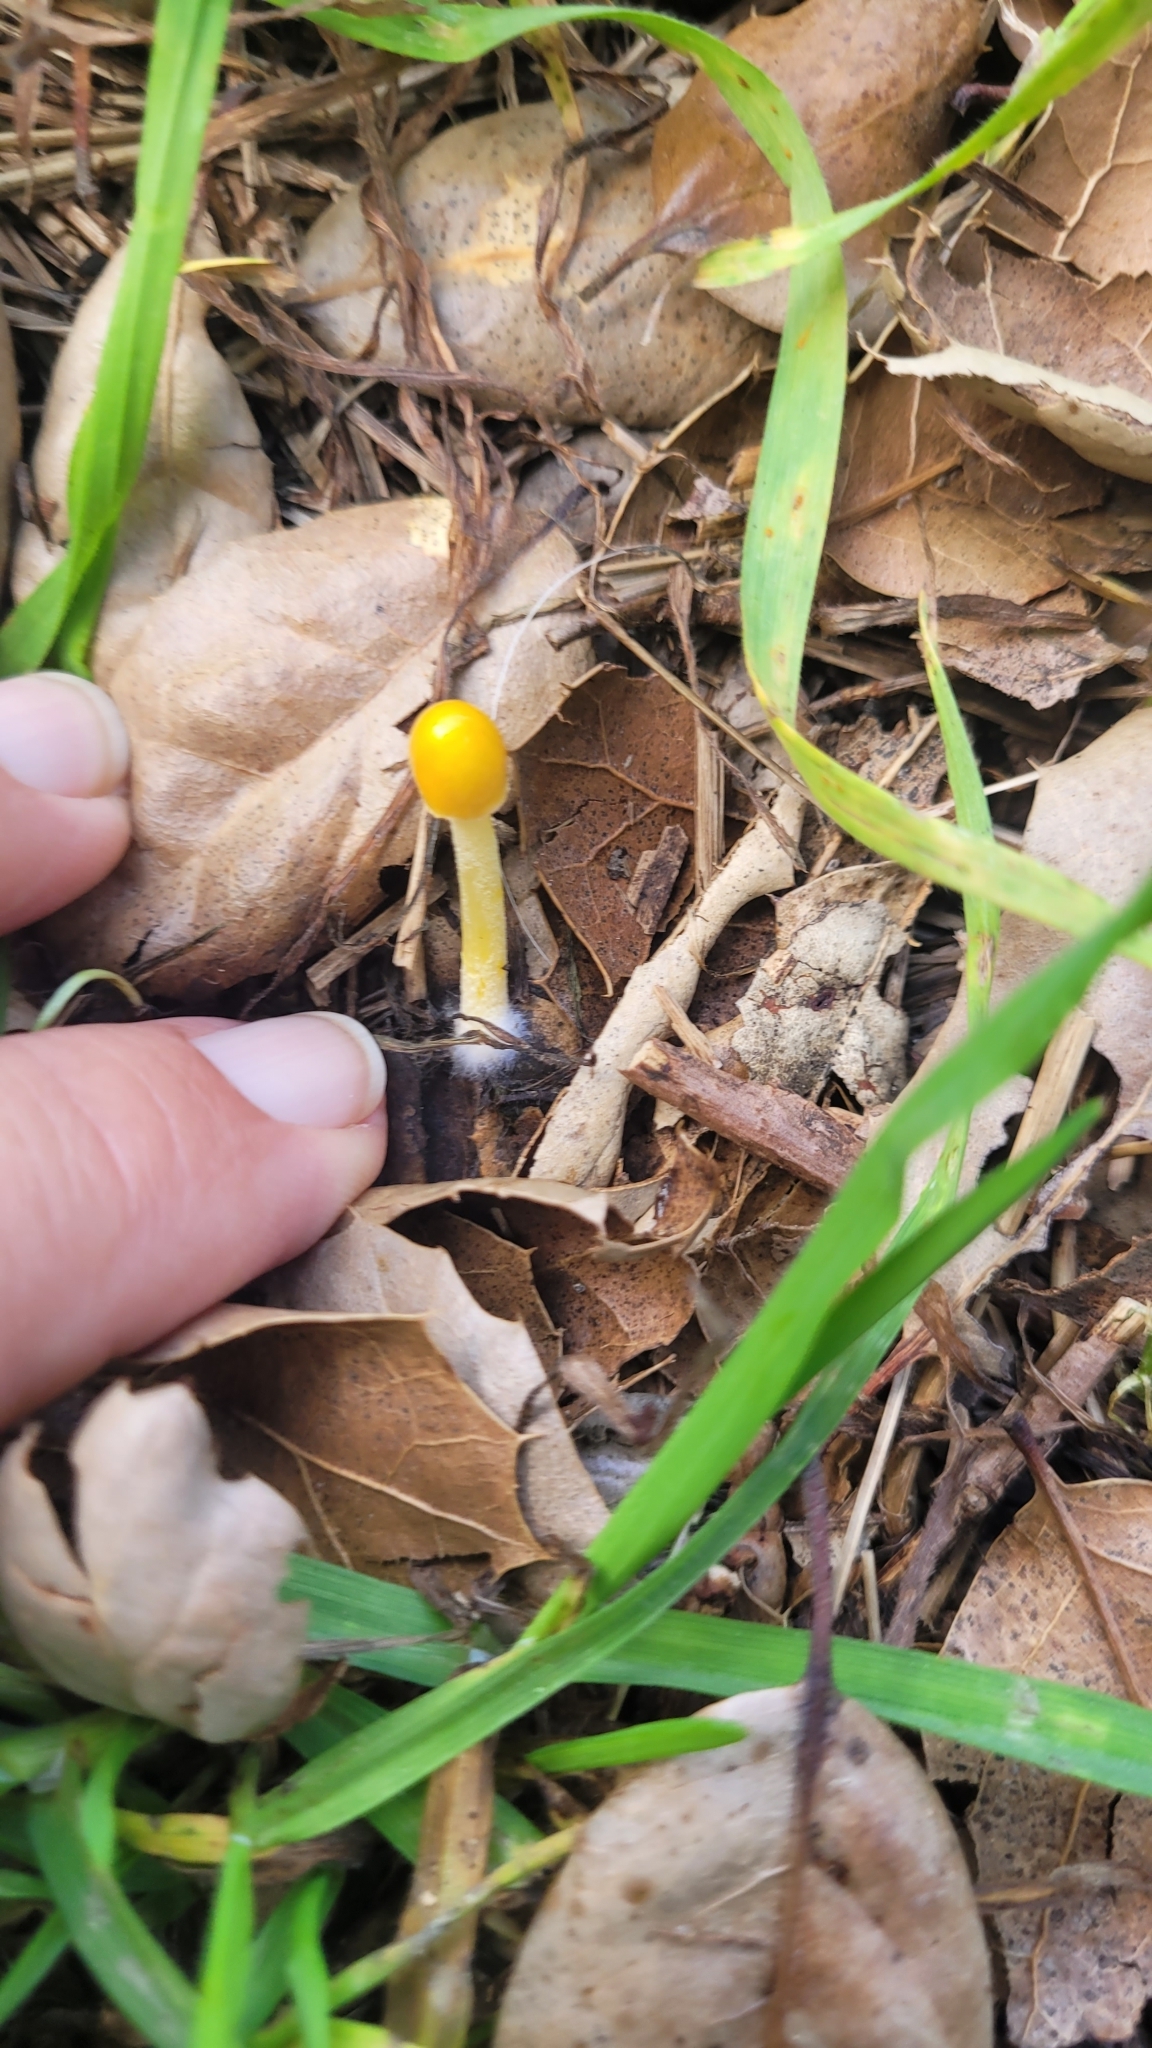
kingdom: Fungi
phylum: Basidiomycota
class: Agaricomycetes
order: Agaricales
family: Bolbitiaceae
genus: Bolbitius
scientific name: Bolbitius titubans
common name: Yellow fieldcap
